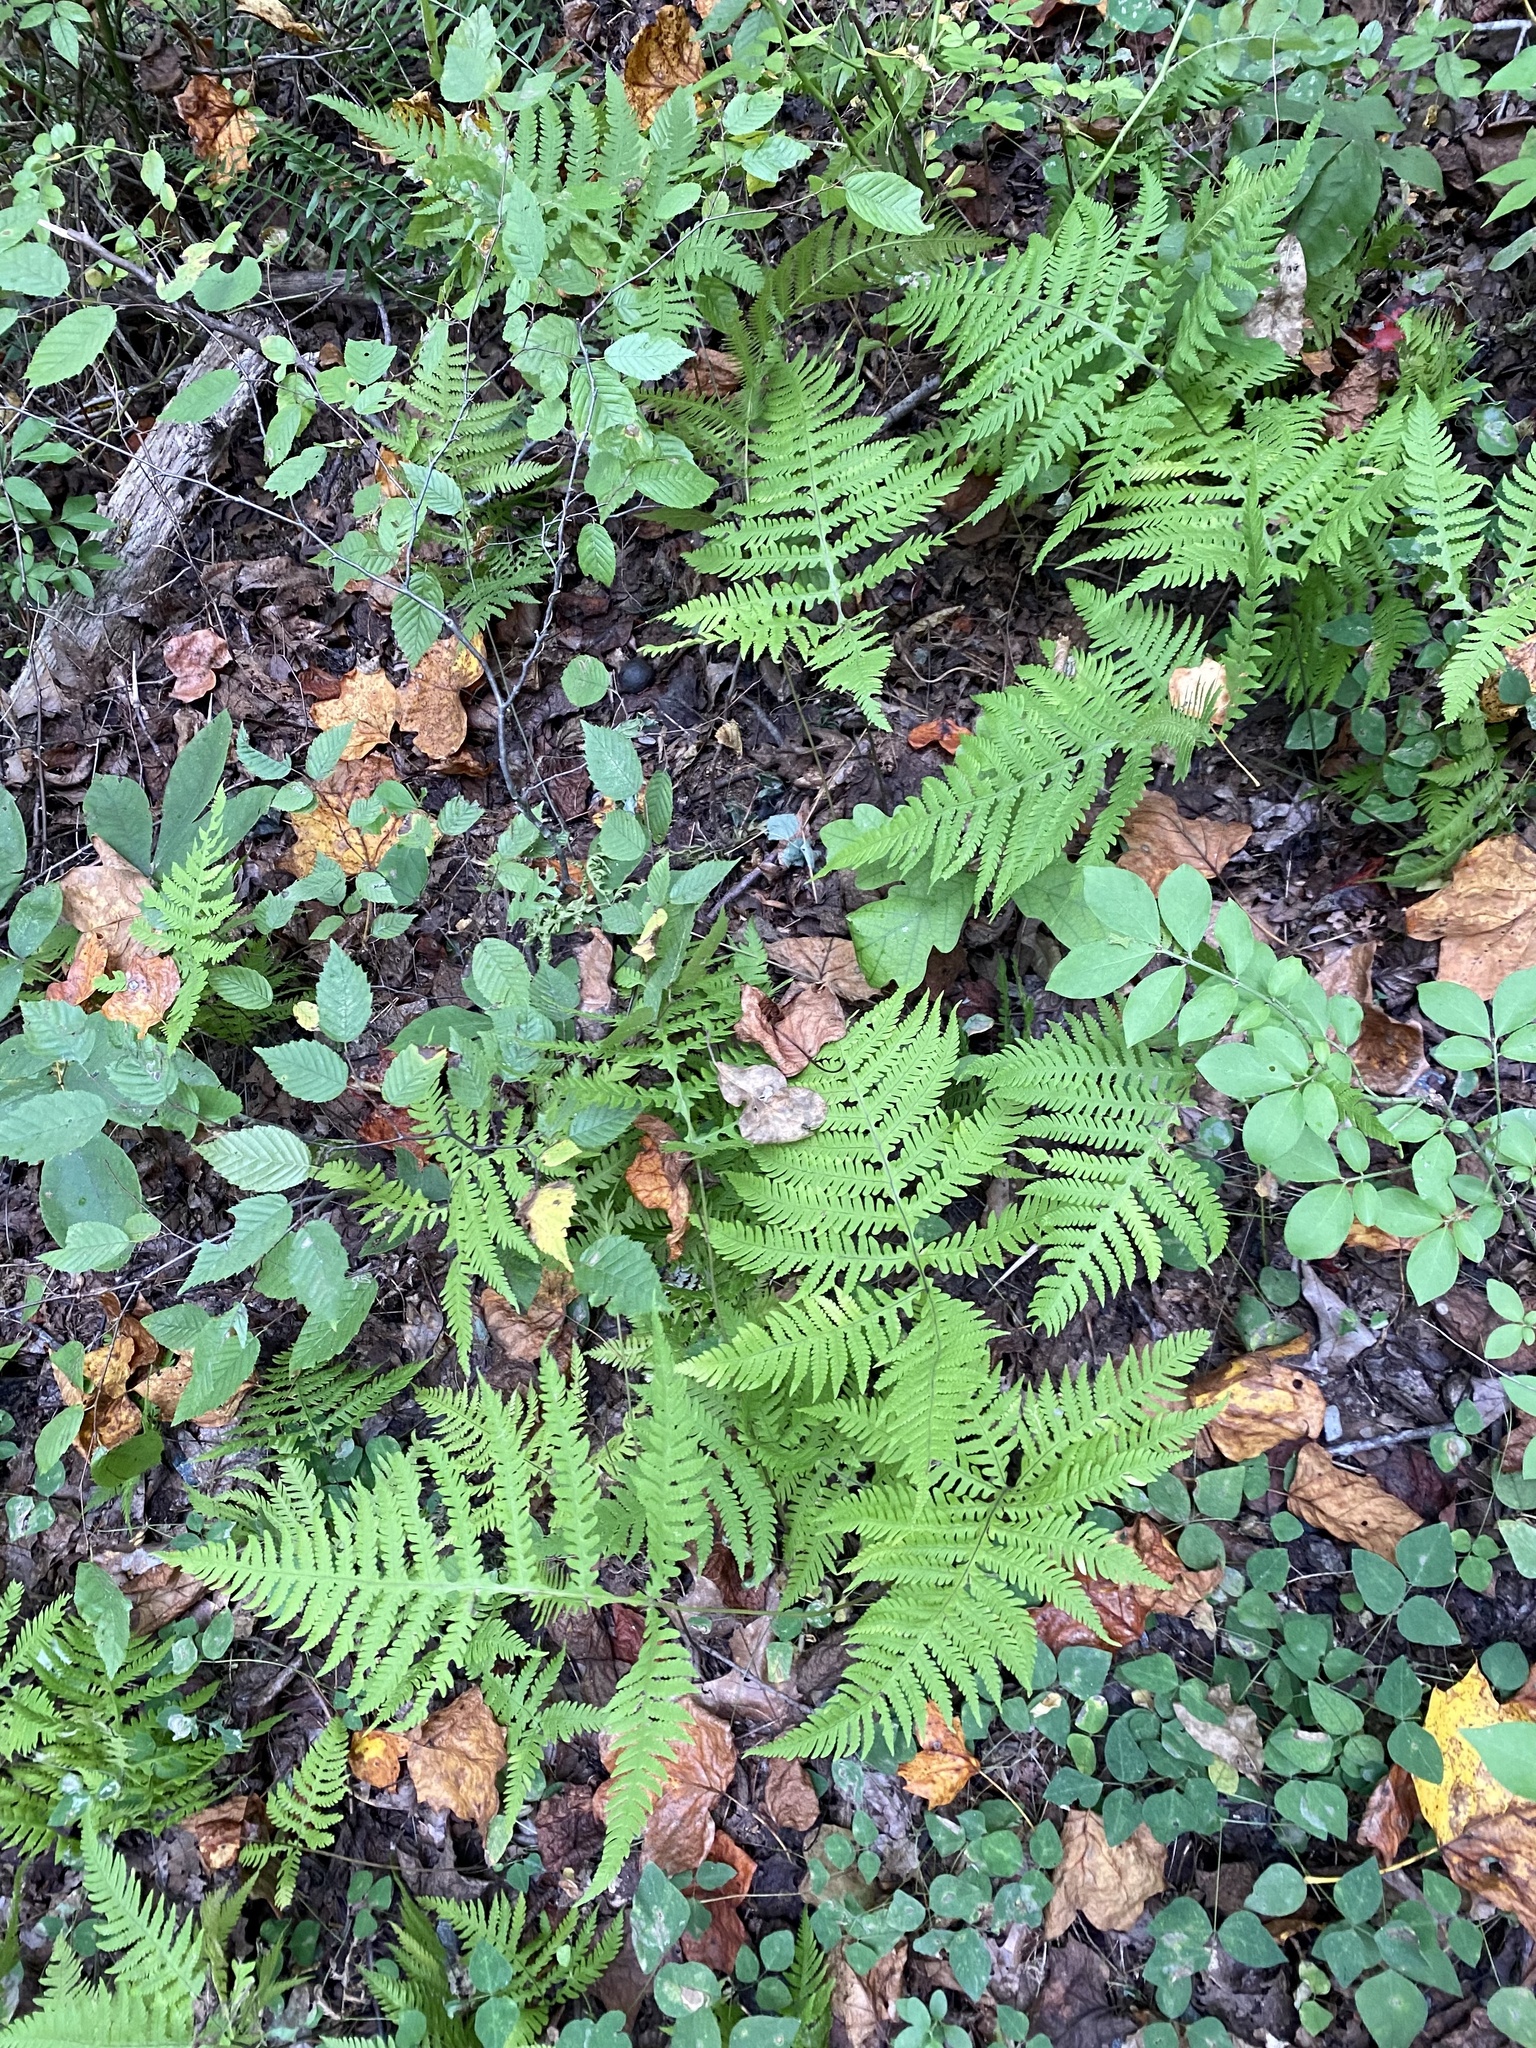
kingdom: Plantae
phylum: Tracheophyta
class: Polypodiopsida
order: Polypodiales
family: Thelypteridaceae
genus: Phegopteris
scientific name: Phegopteris hexagonoptera
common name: Broad beech fern
